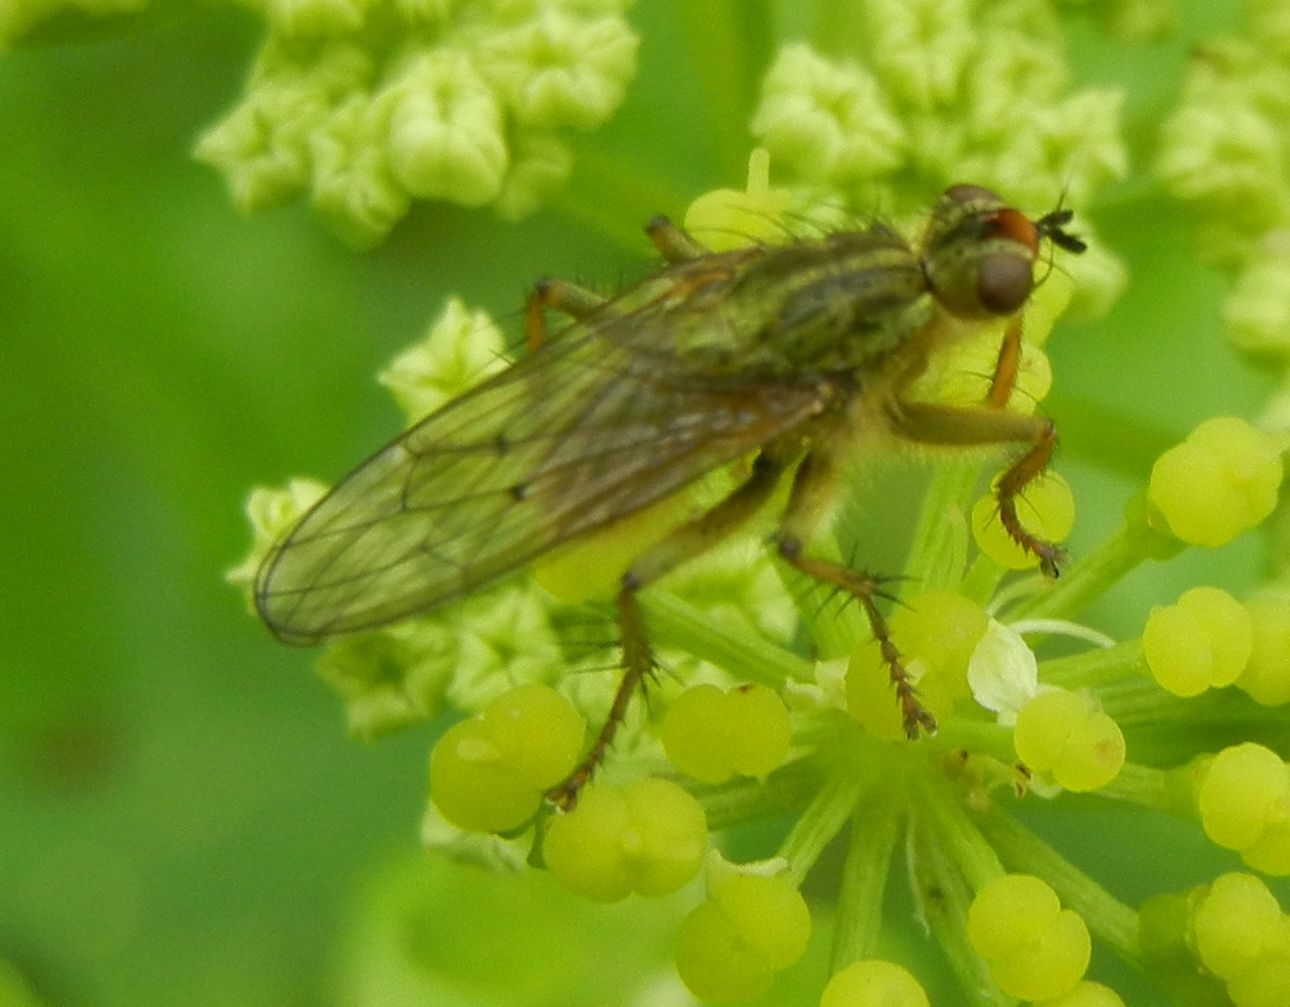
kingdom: Animalia
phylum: Arthropoda
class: Insecta
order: Diptera
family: Scathophagidae
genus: Scathophaga
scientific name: Scathophaga stercoraria
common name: Yellow dung fly
